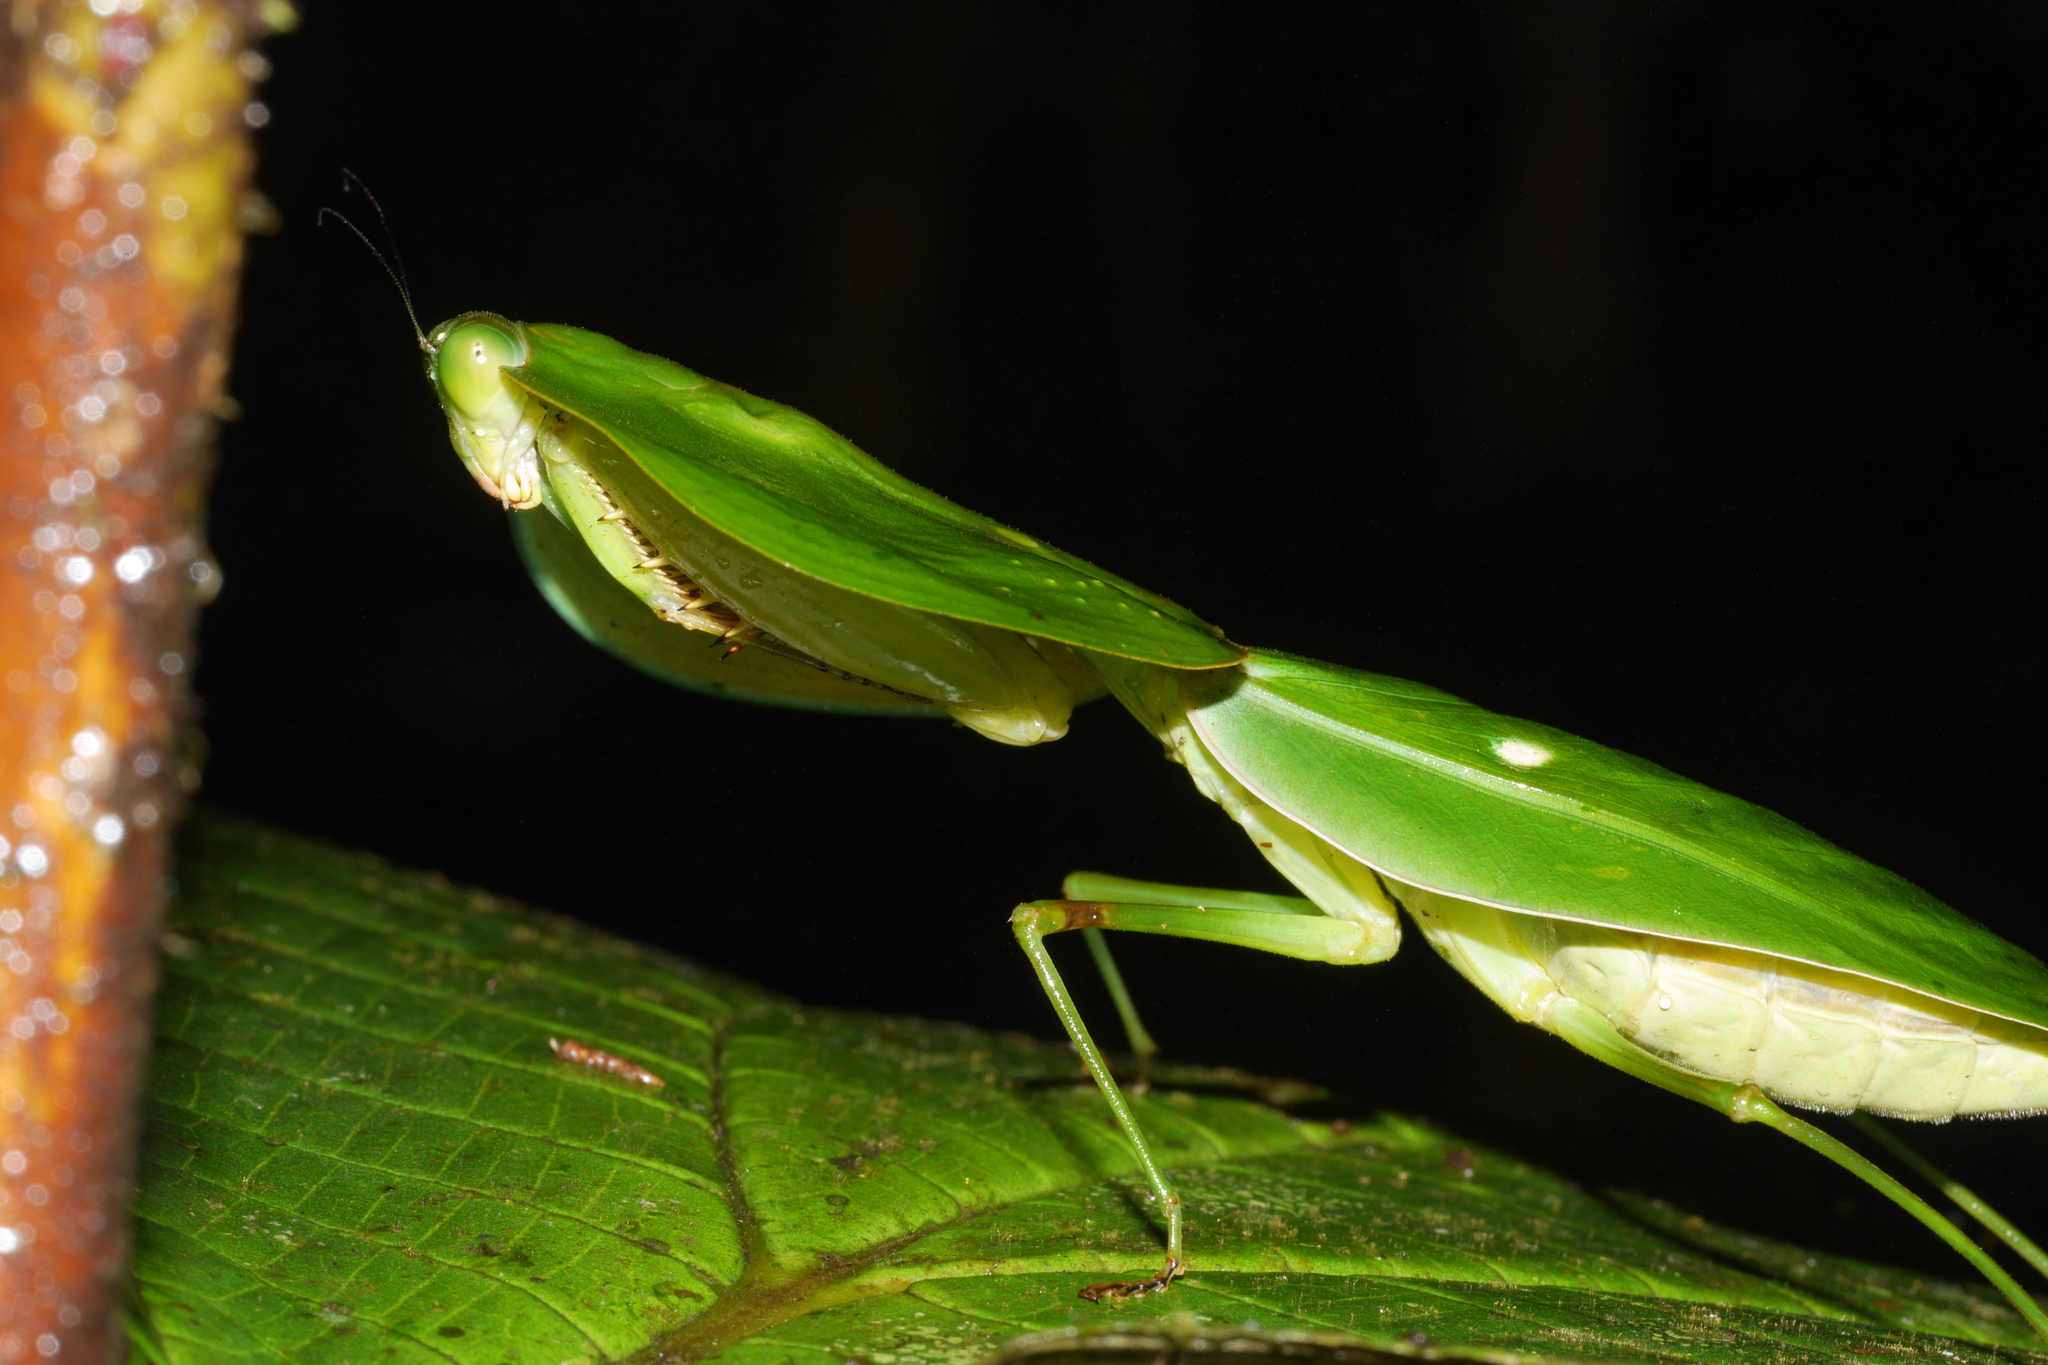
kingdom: Animalia
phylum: Arthropoda
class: Insecta
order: Mantodea
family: Mantidae
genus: Choeradodis
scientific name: Choeradodis rhombicollis
